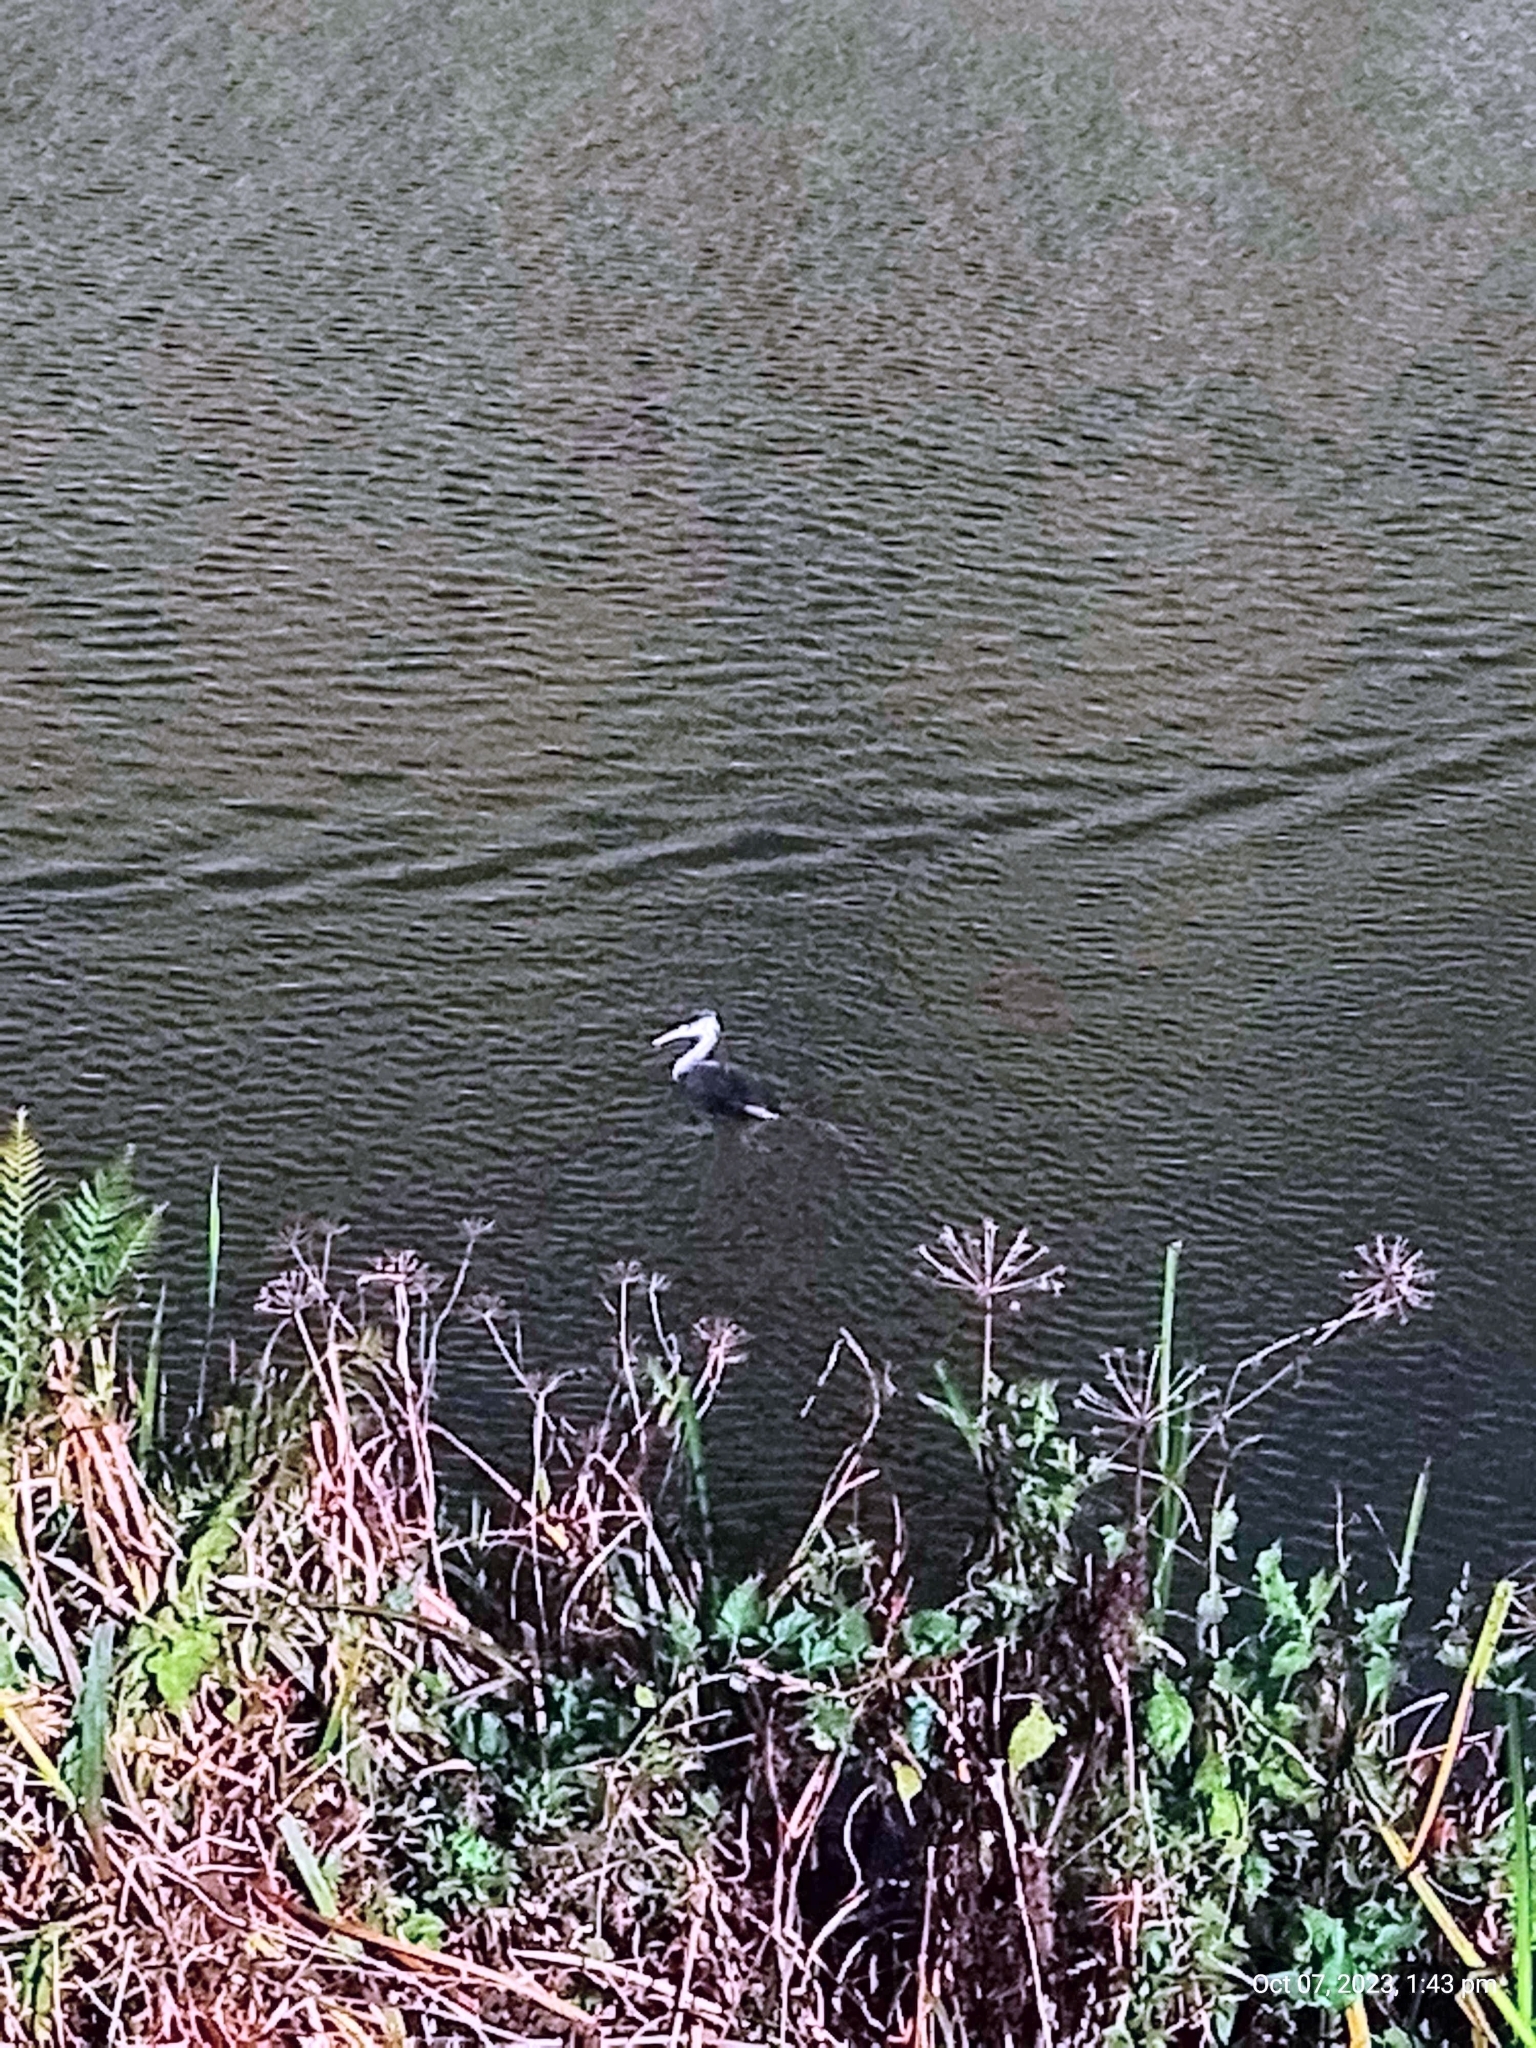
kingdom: Animalia
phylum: Chordata
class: Aves
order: Podicipediformes
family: Podicipedidae
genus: Podiceps
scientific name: Podiceps cristatus
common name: Great crested grebe
